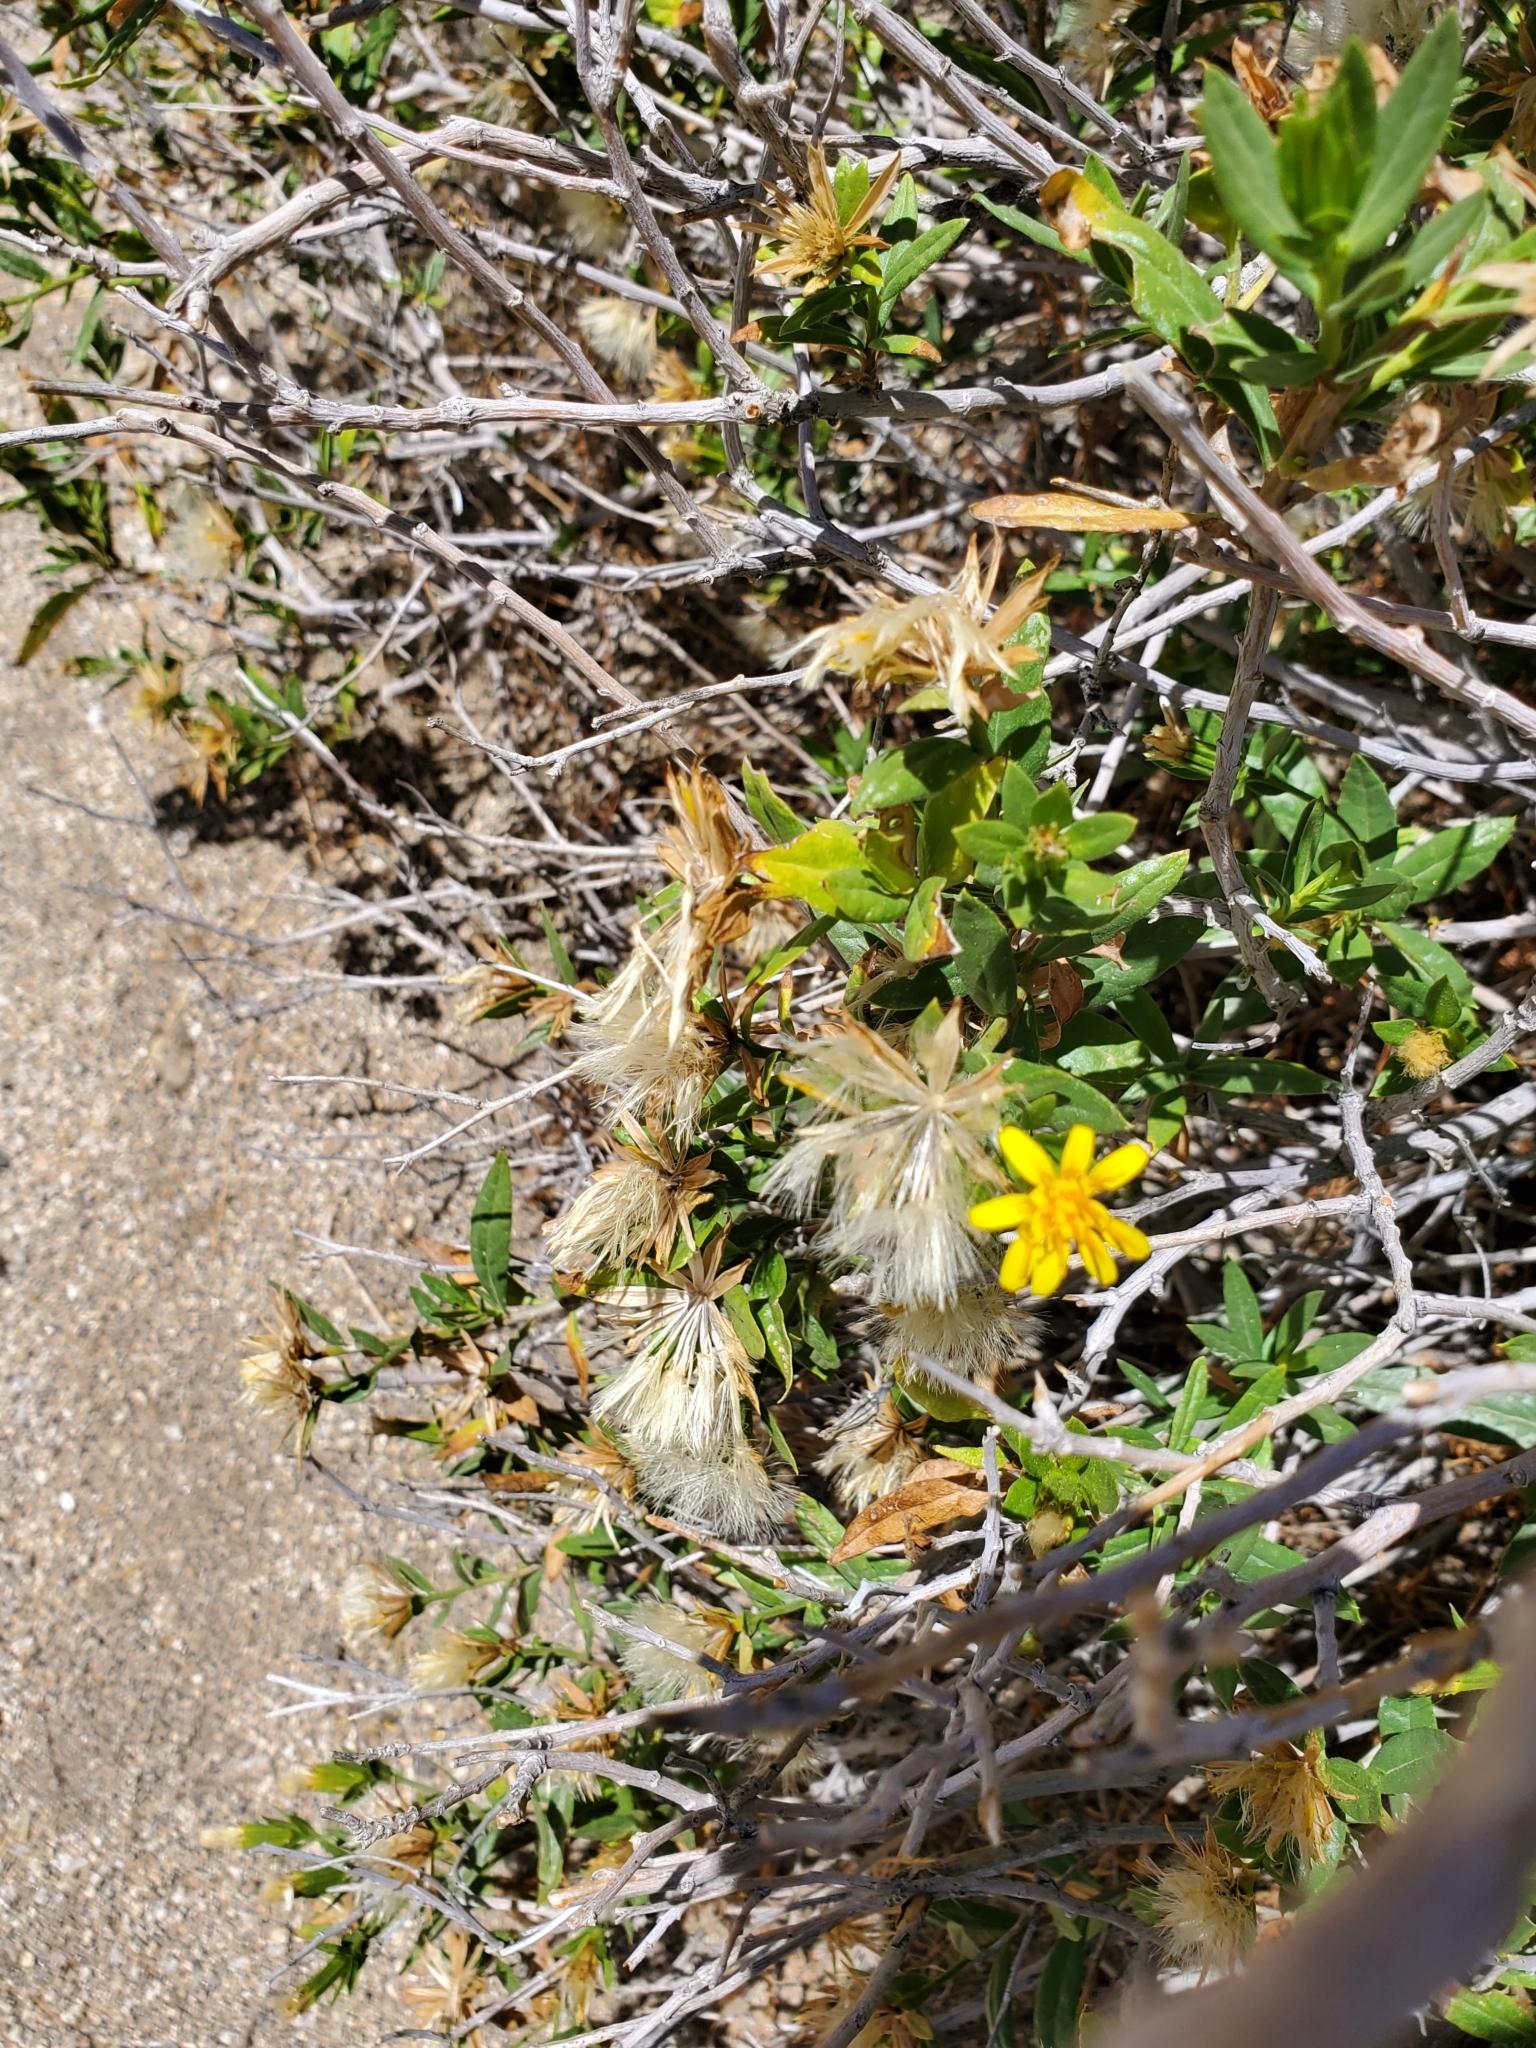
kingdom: Plantae
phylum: Tracheophyta
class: Magnoliopsida
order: Asterales
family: Asteraceae
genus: Trixis
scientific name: Trixis californica
